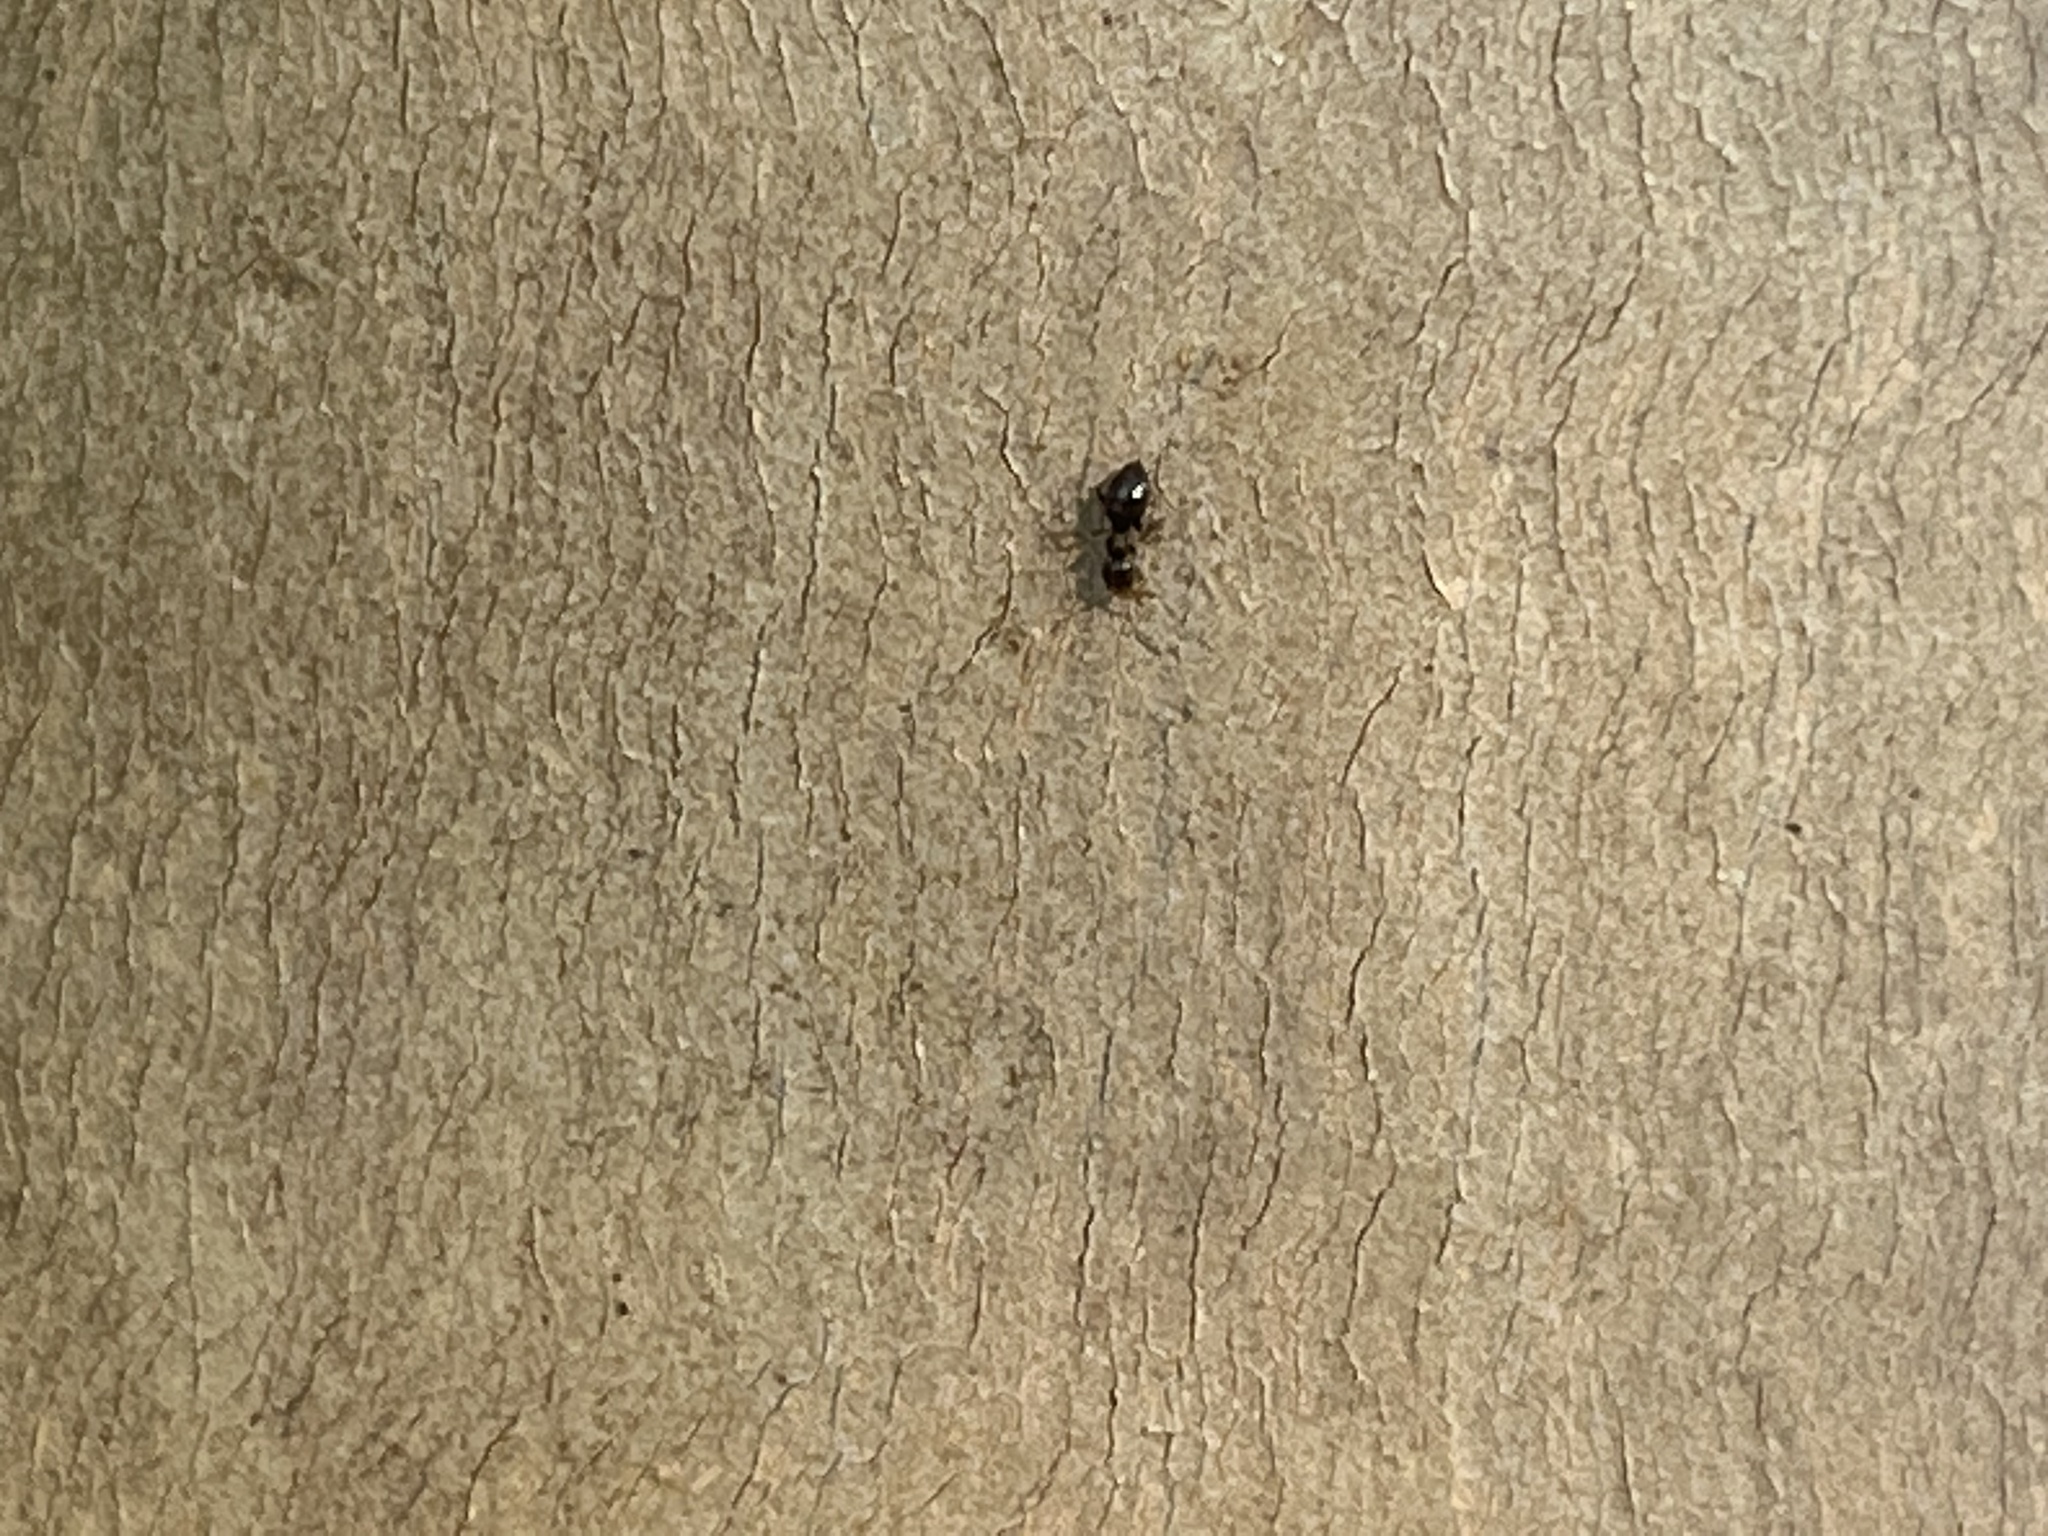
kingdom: Animalia
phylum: Arthropoda
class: Insecta
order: Hymenoptera
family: Formicidae
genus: Brachymyrmex
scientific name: Brachymyrmex patagonicus
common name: Dark rover ant
